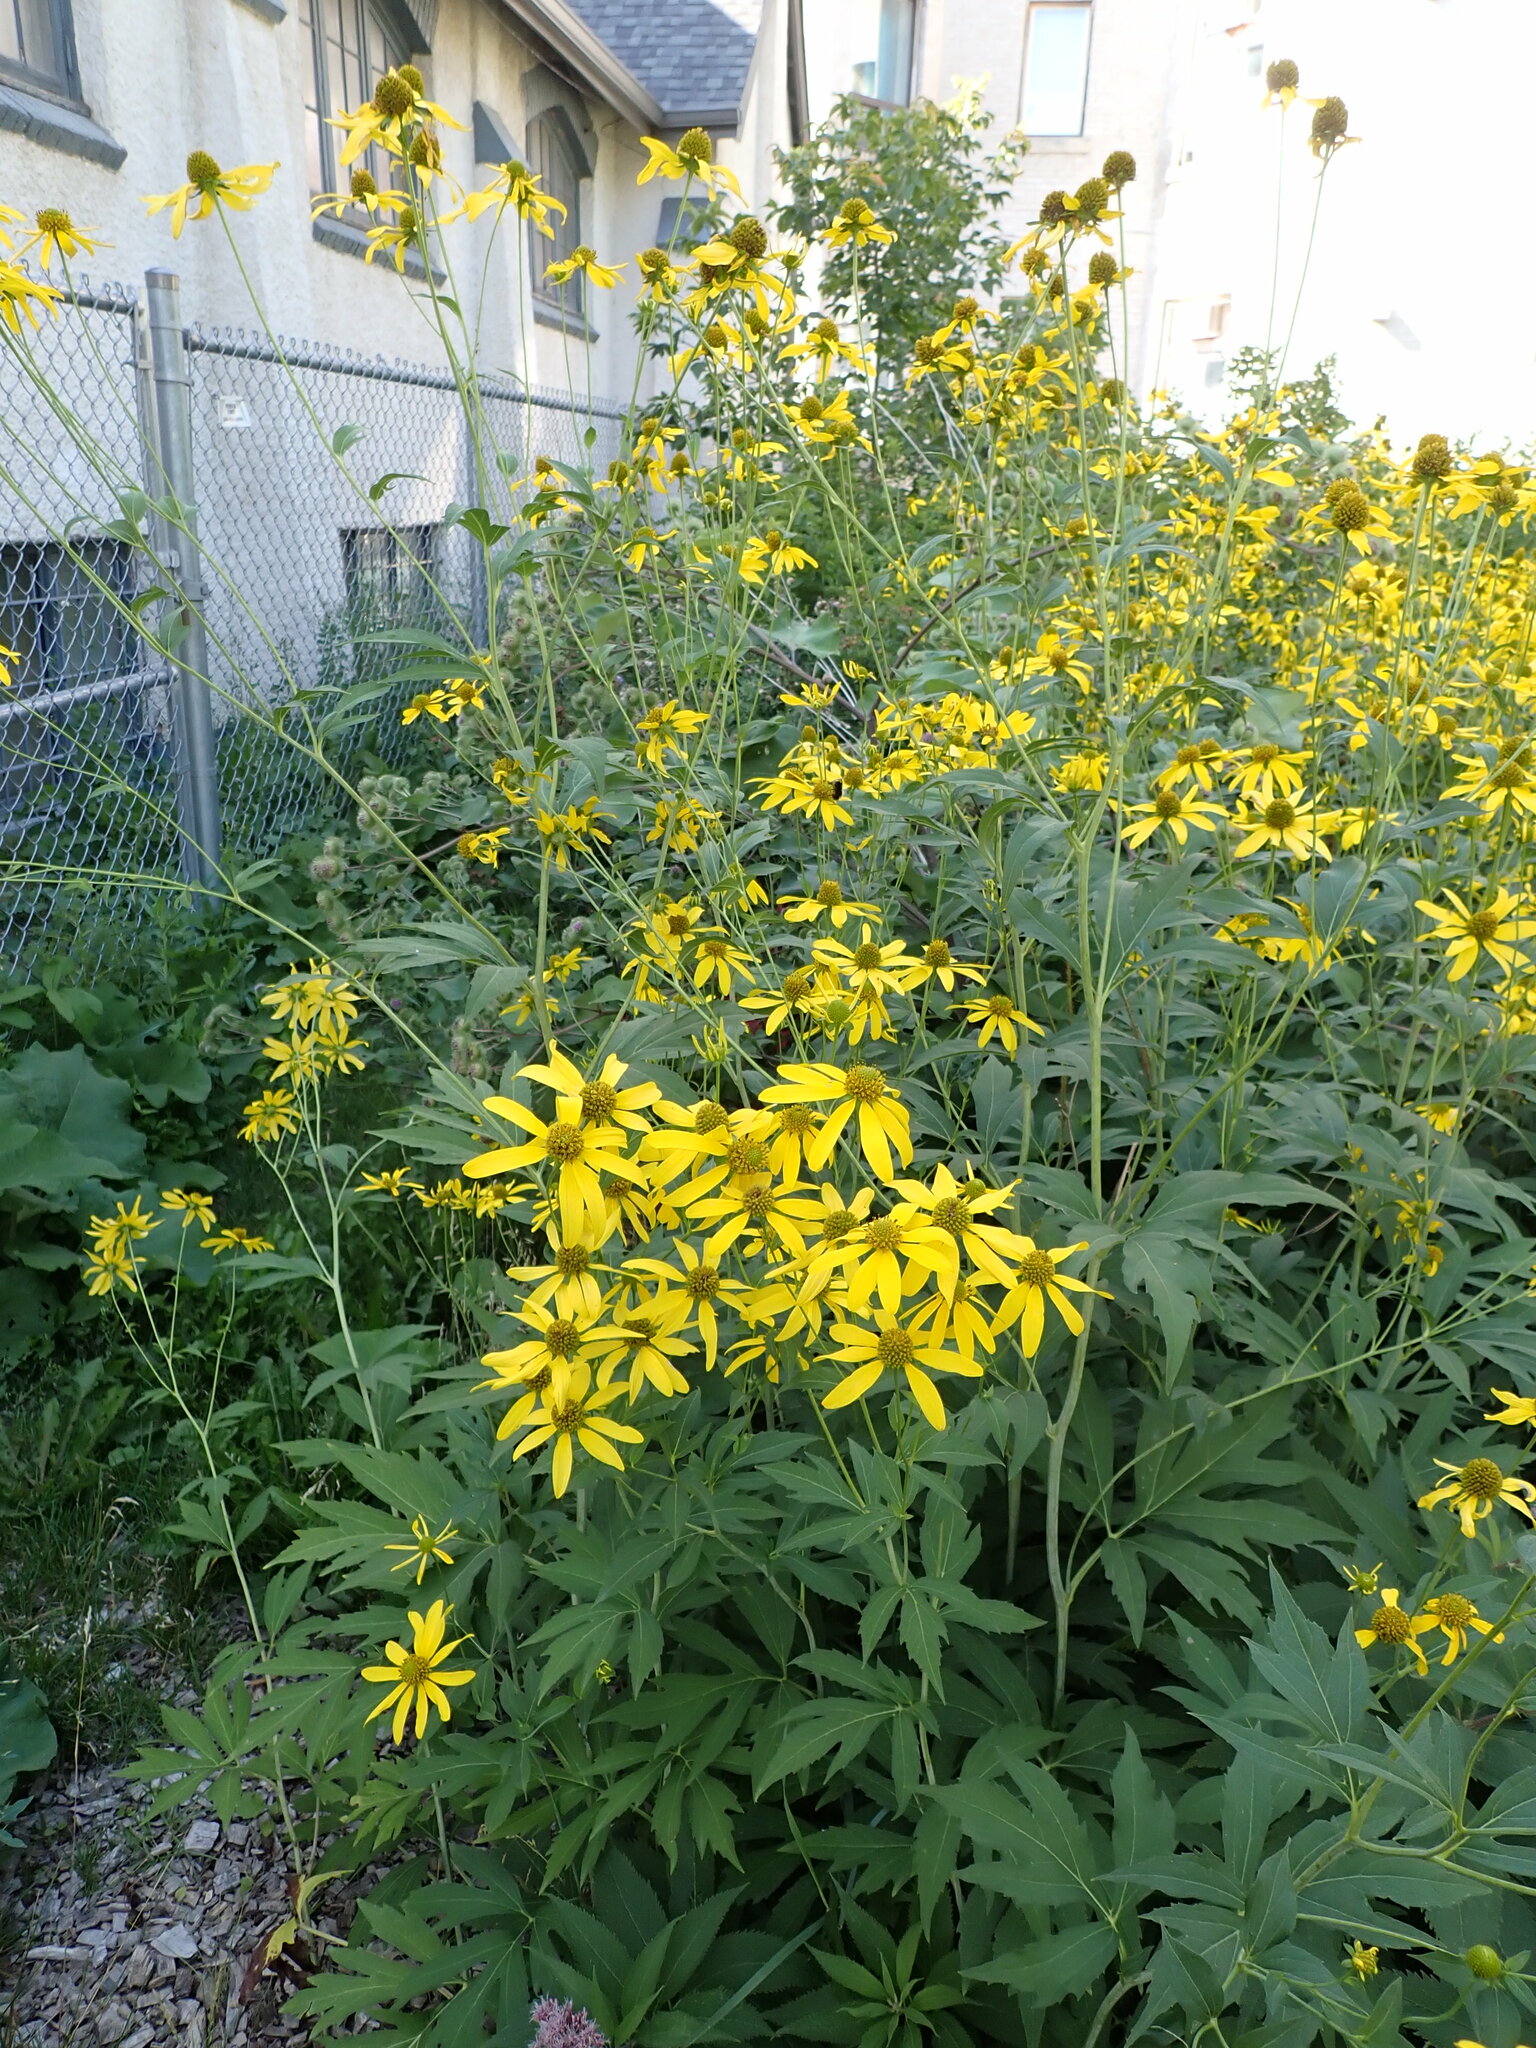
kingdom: Plantae
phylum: Tracheophyta
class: Magnoliopsida
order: Asterales
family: Asteraceae
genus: Rudbeckia
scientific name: Rudbeckia laciniata
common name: Coneflower
